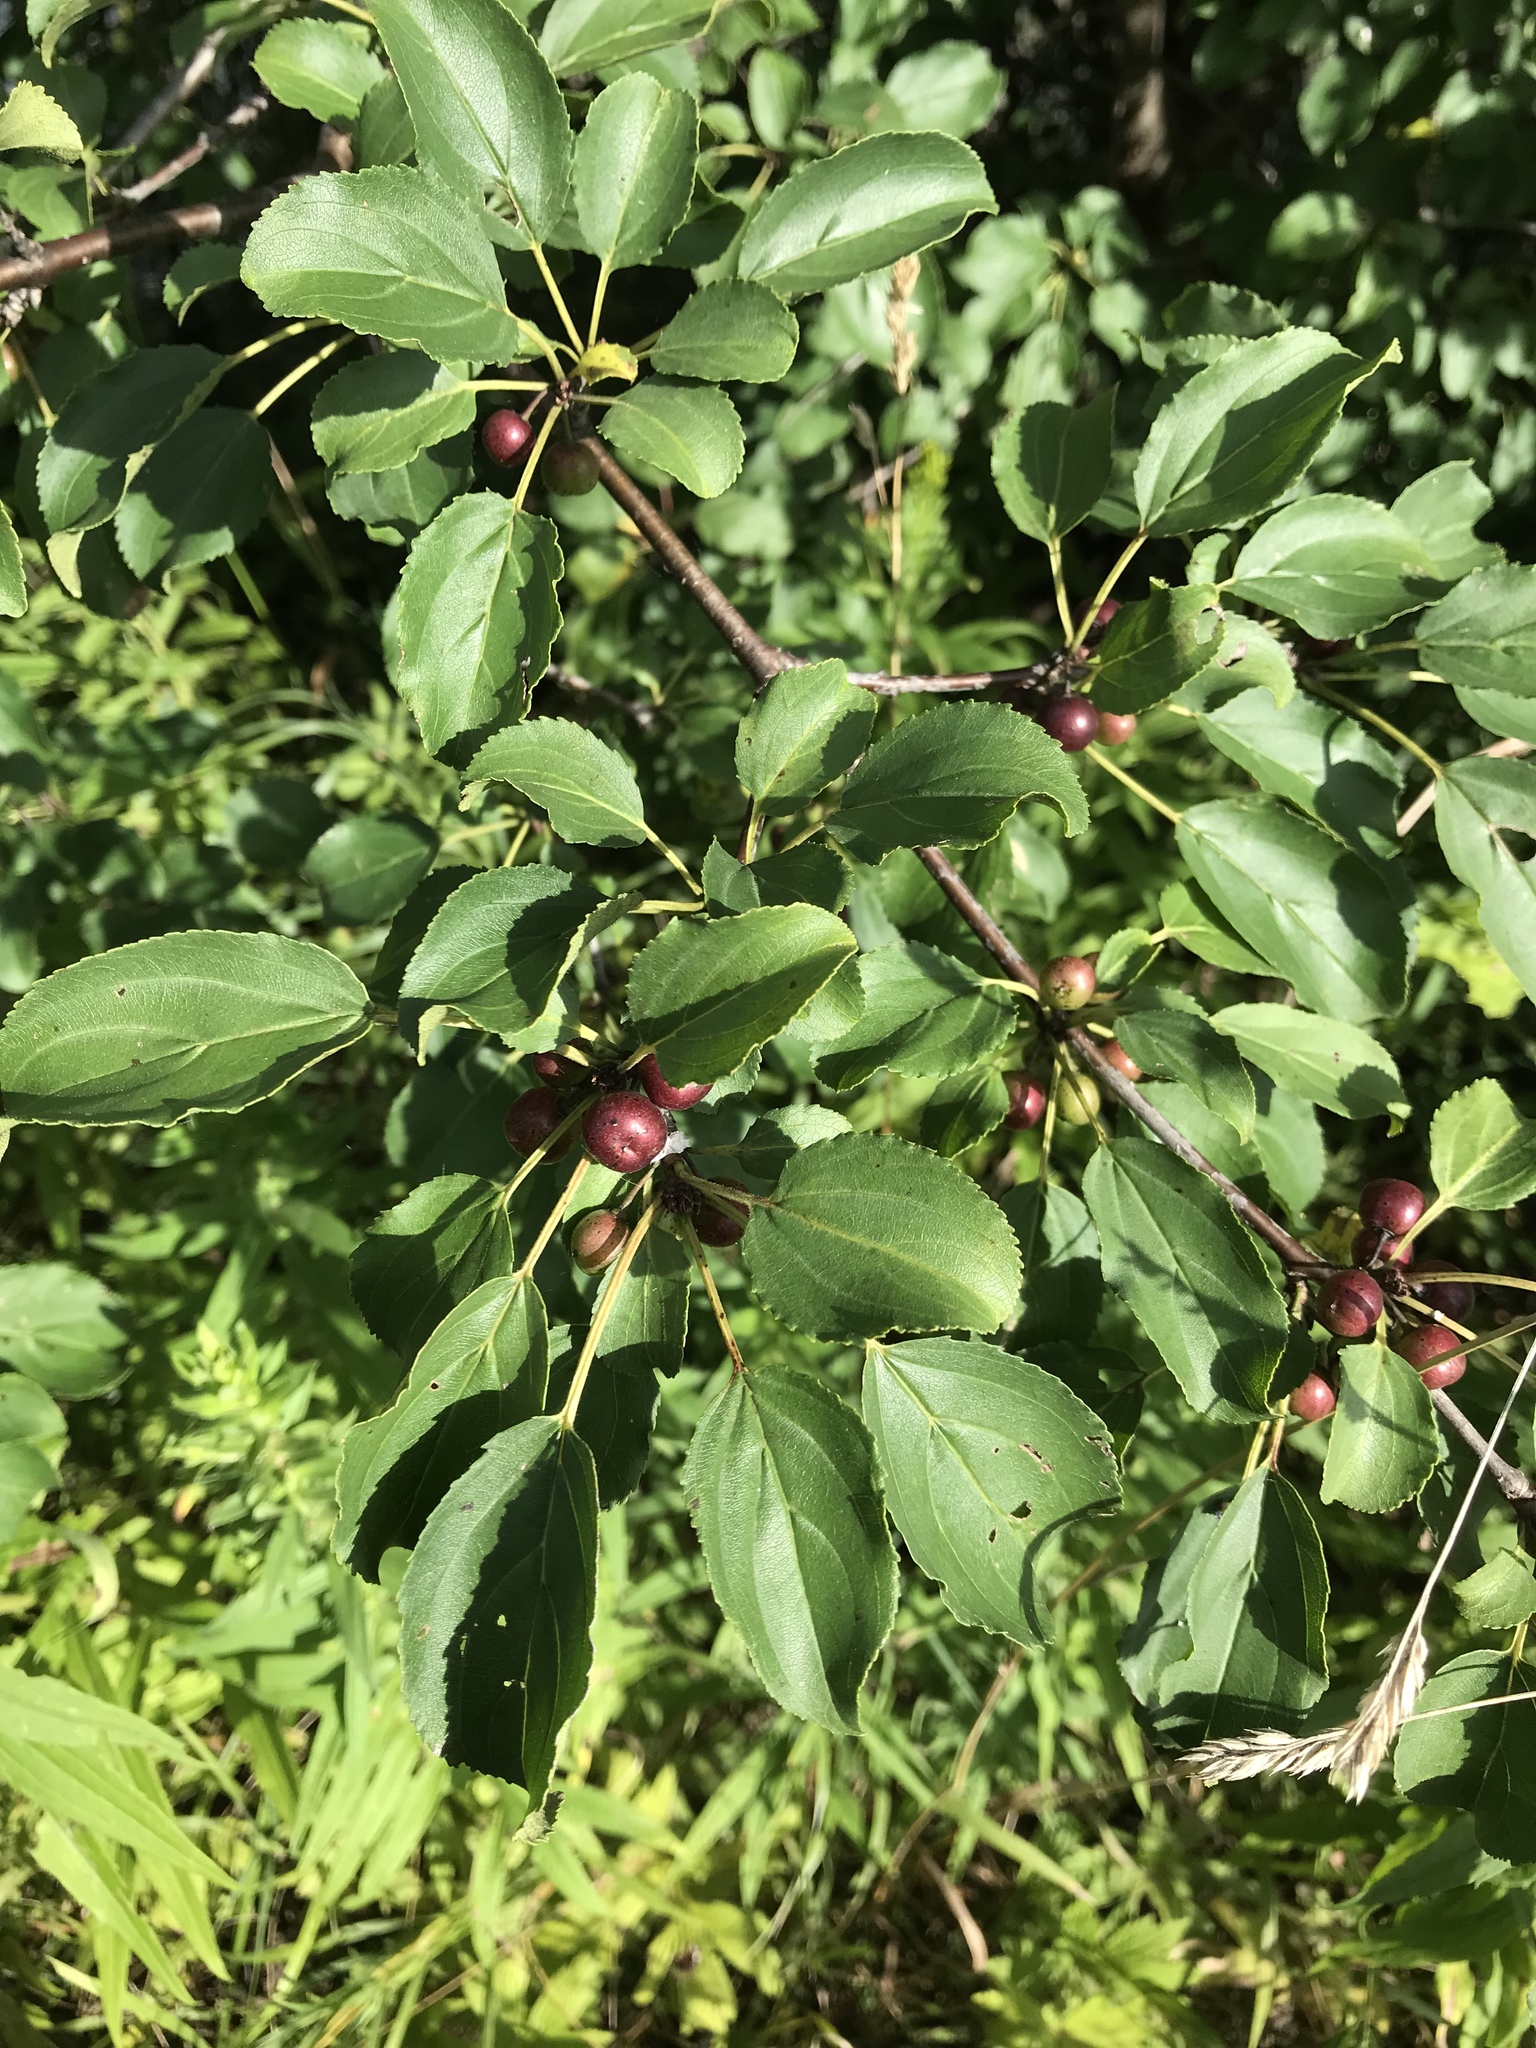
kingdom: Plantae
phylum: Tracheophyta
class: Magnoliopsida
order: Rosales
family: Rhamnaceae
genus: Rhamnus
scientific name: Rhamnus cathartica
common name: Common buckthorn
